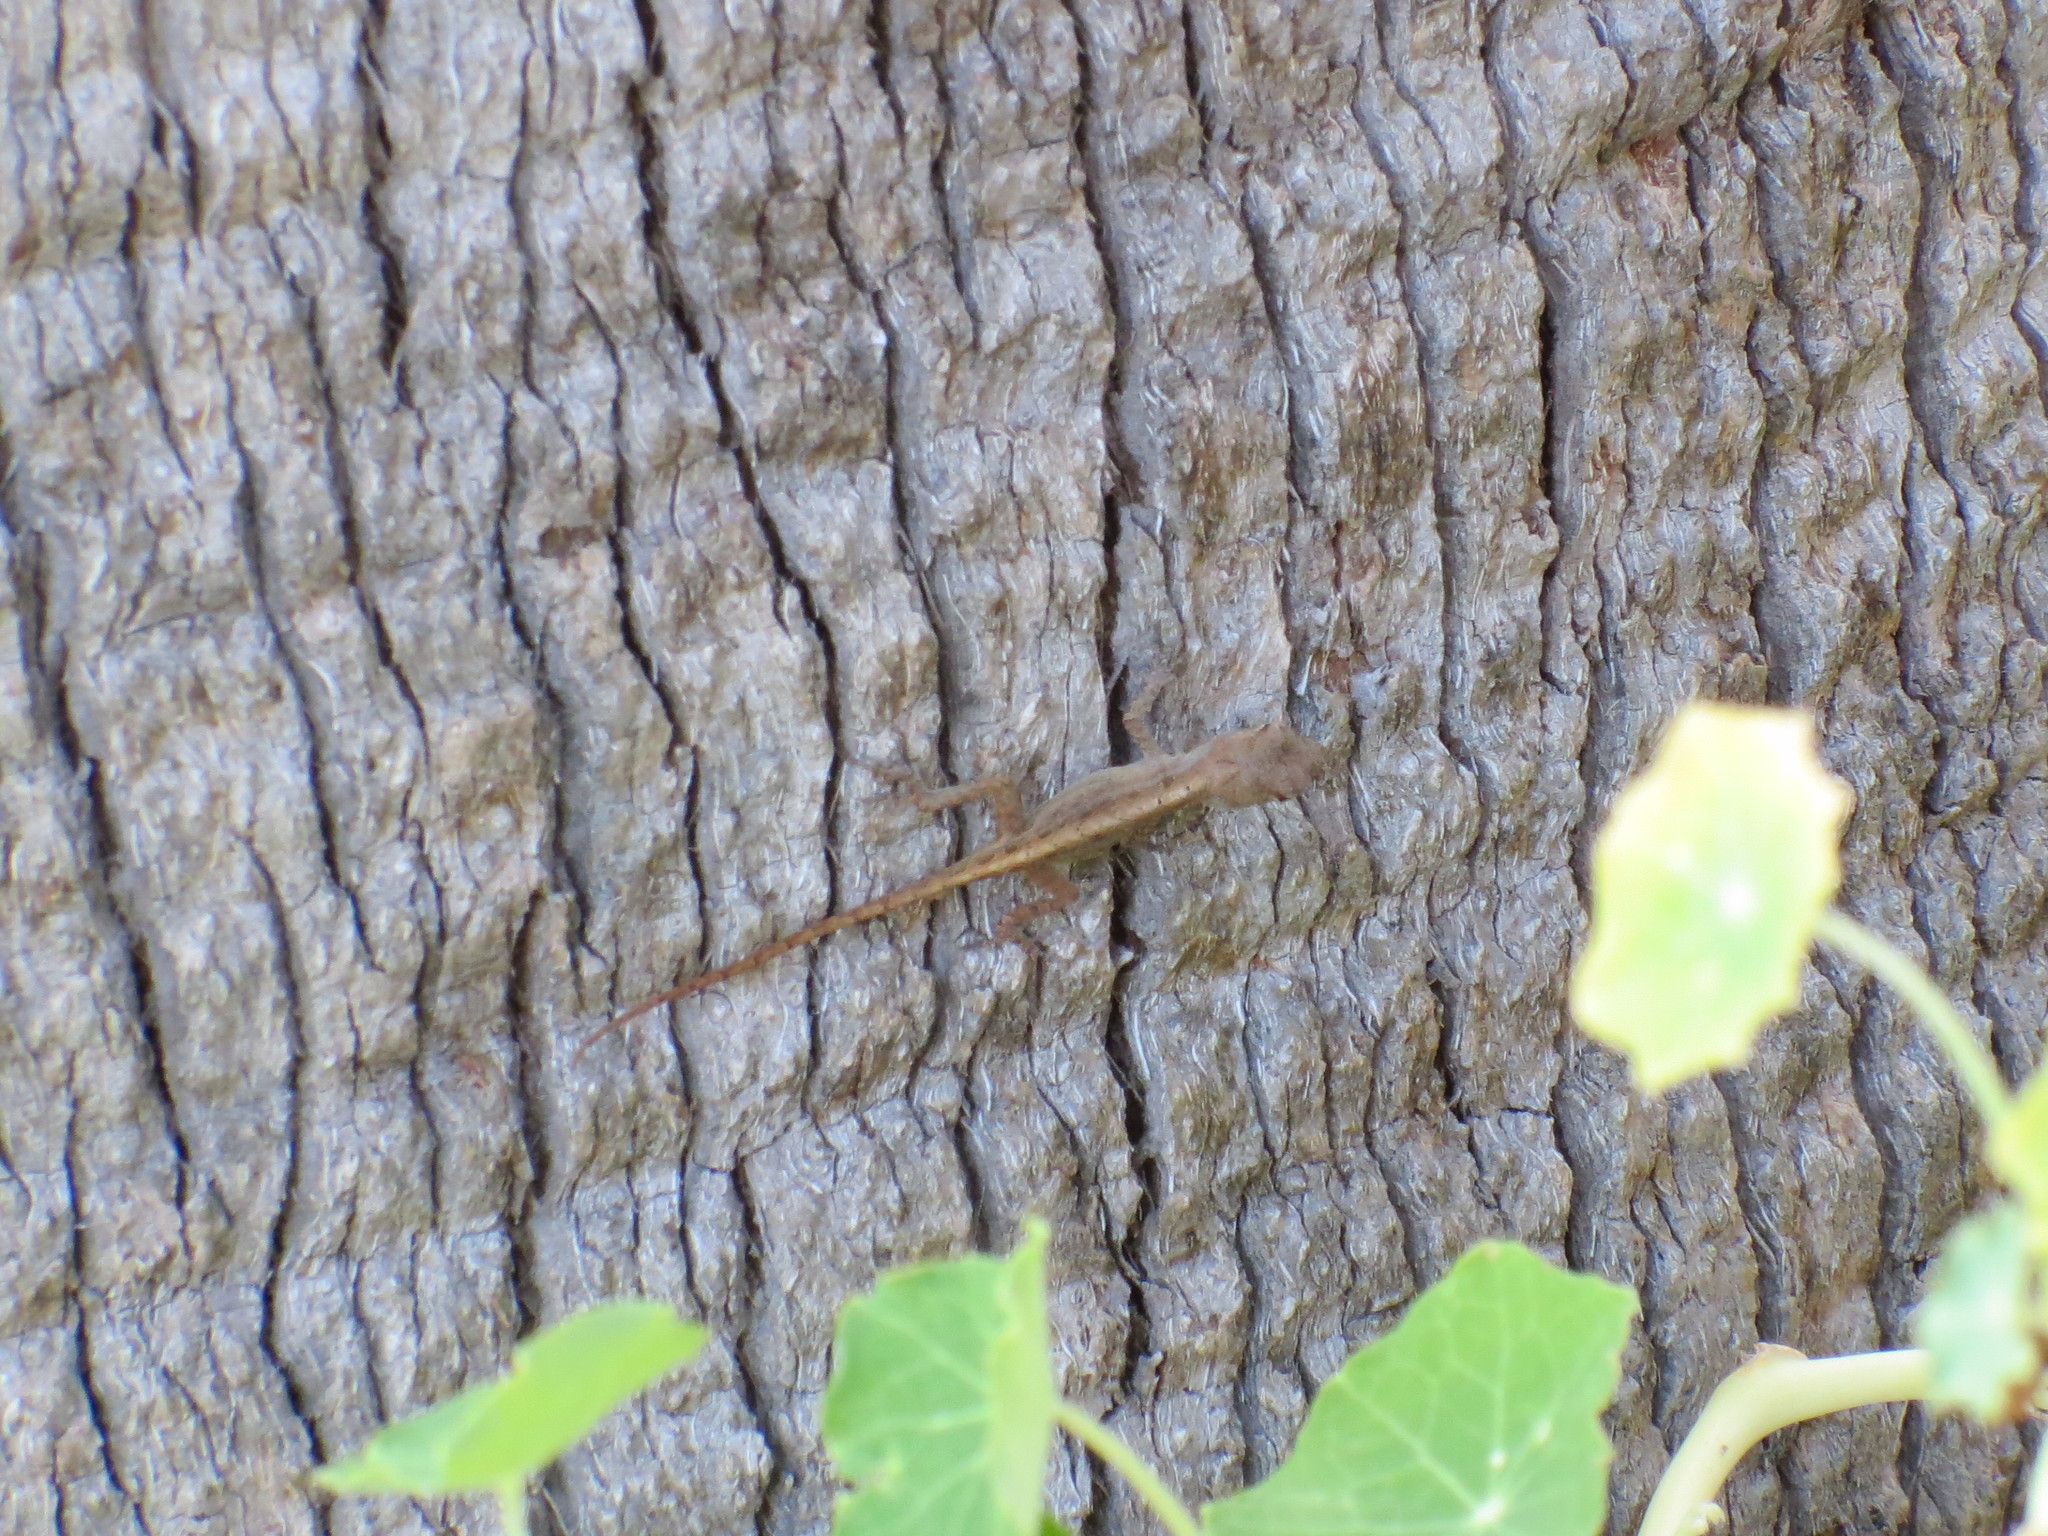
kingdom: Animalia
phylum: Chordata
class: Squamata
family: Dactyloidae
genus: Anolis
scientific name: Anolis sagrei
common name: Brown anole
